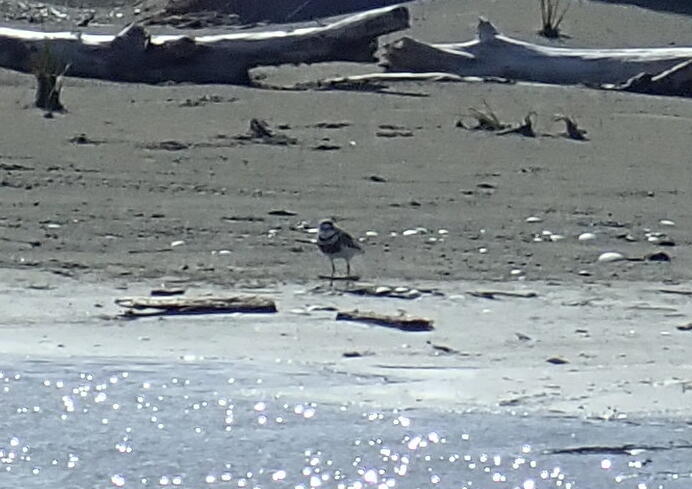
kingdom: Animalia
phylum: Chordata
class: Aves
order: Charadriiformes
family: Charadriidae
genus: Anarhynchus
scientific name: Anarhynchus
